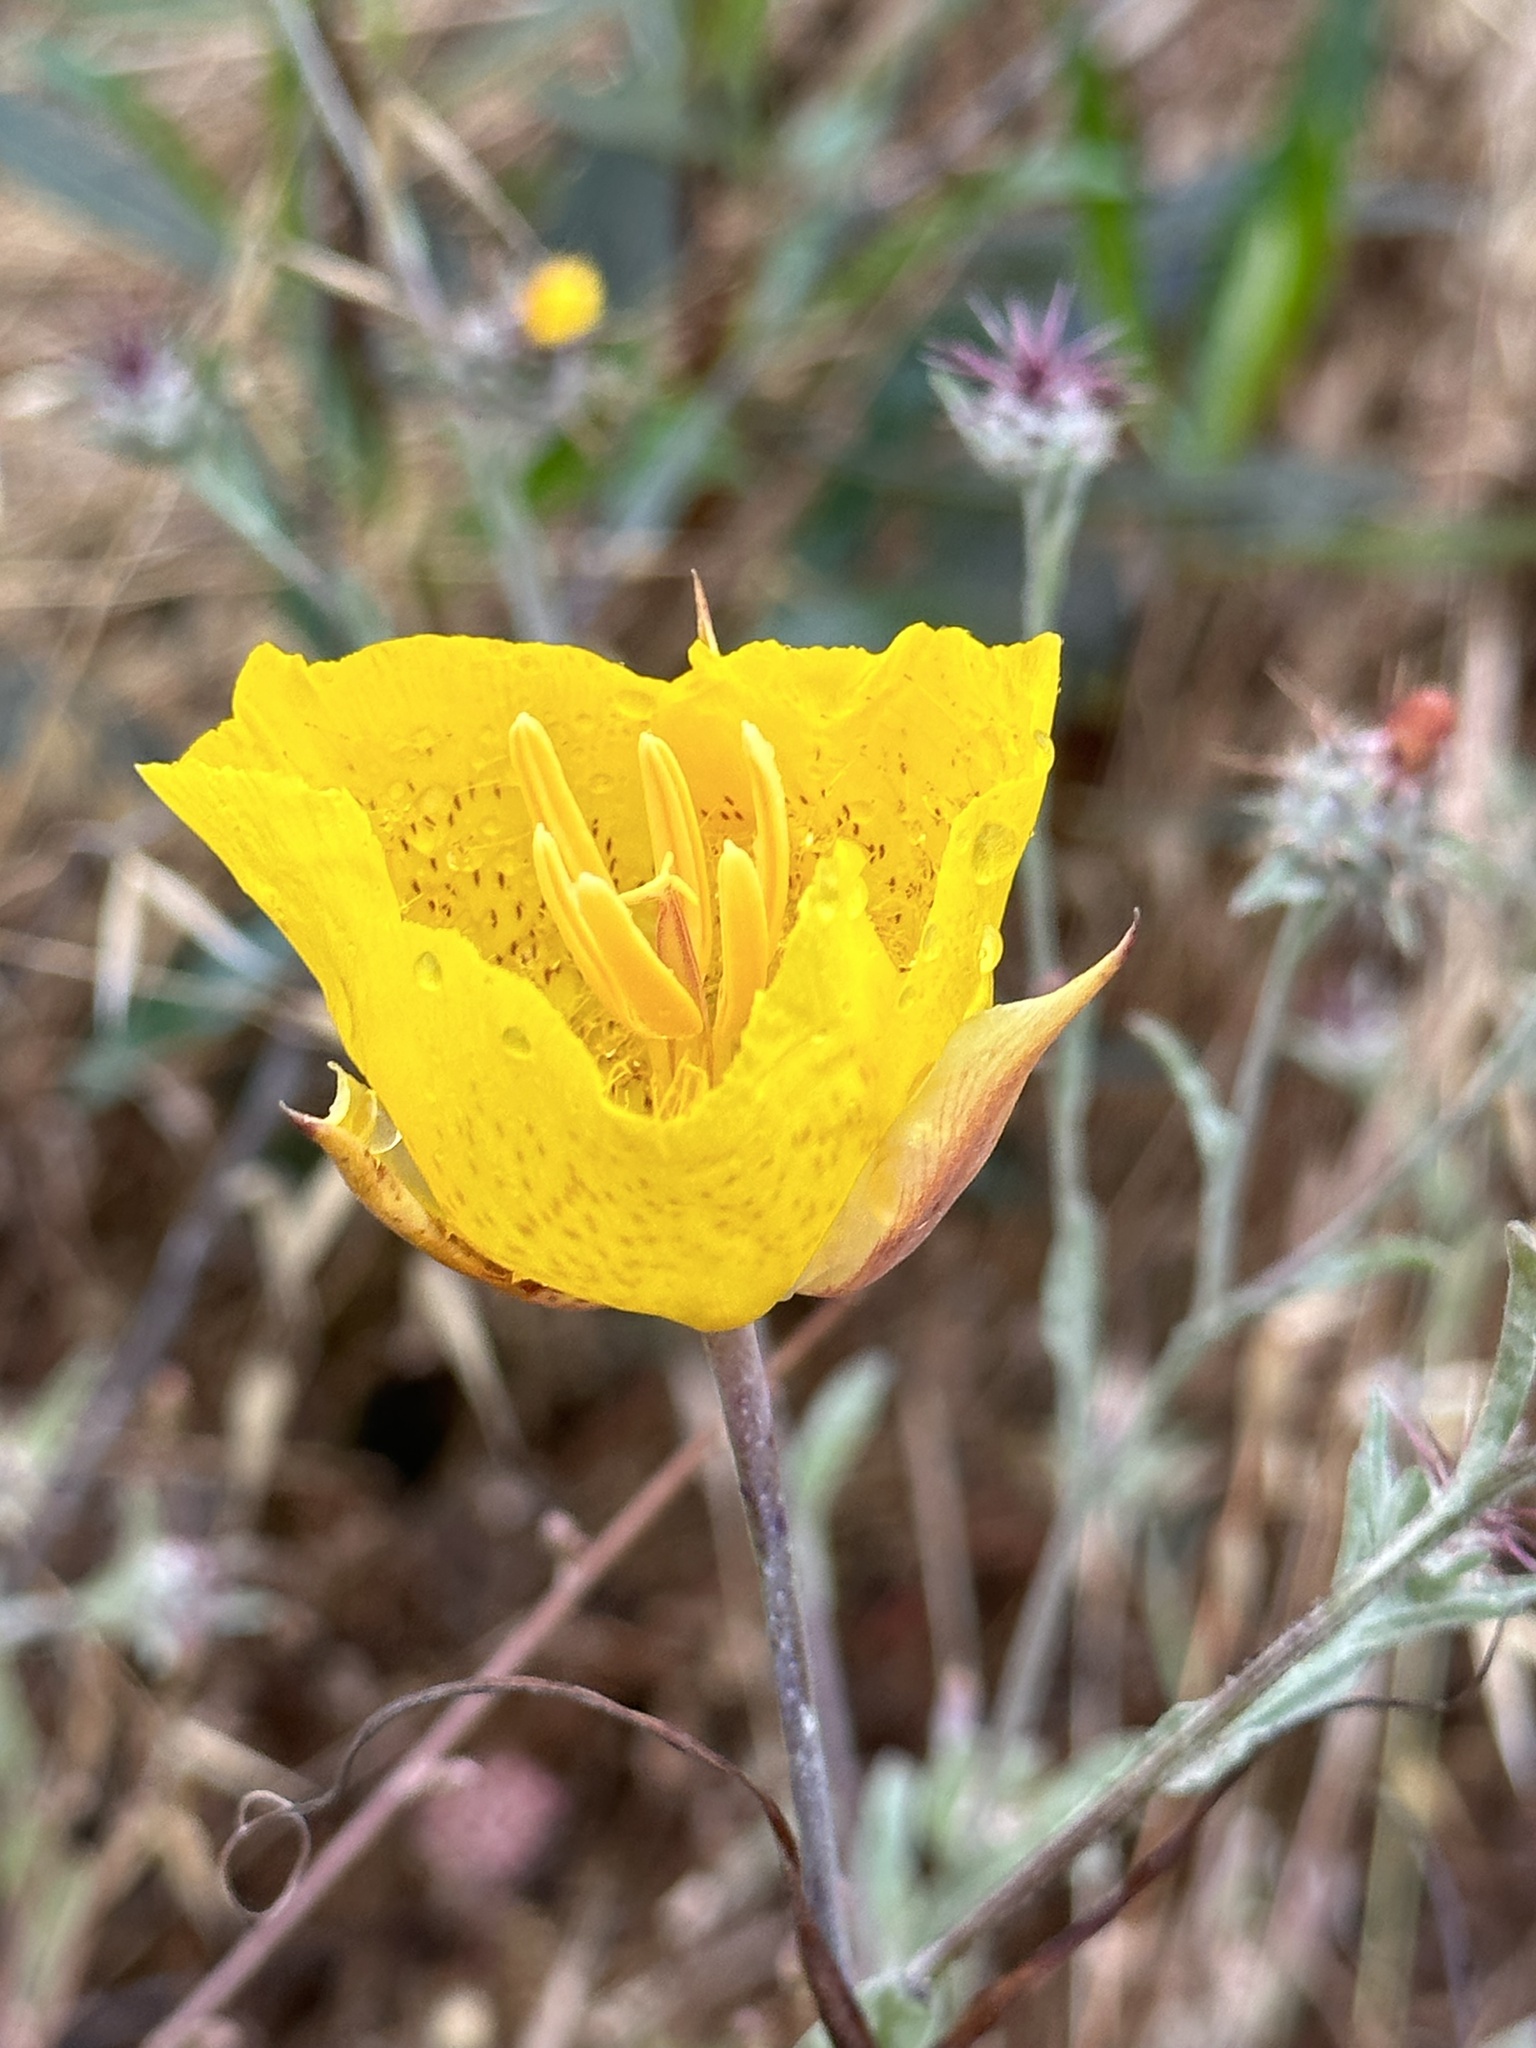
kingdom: Plantae
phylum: Tracheophyta
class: Liliopsida
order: Liliales
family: Liliaceae
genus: Calochortus
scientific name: Calochortus weedii
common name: Weed's mariposa-lily
